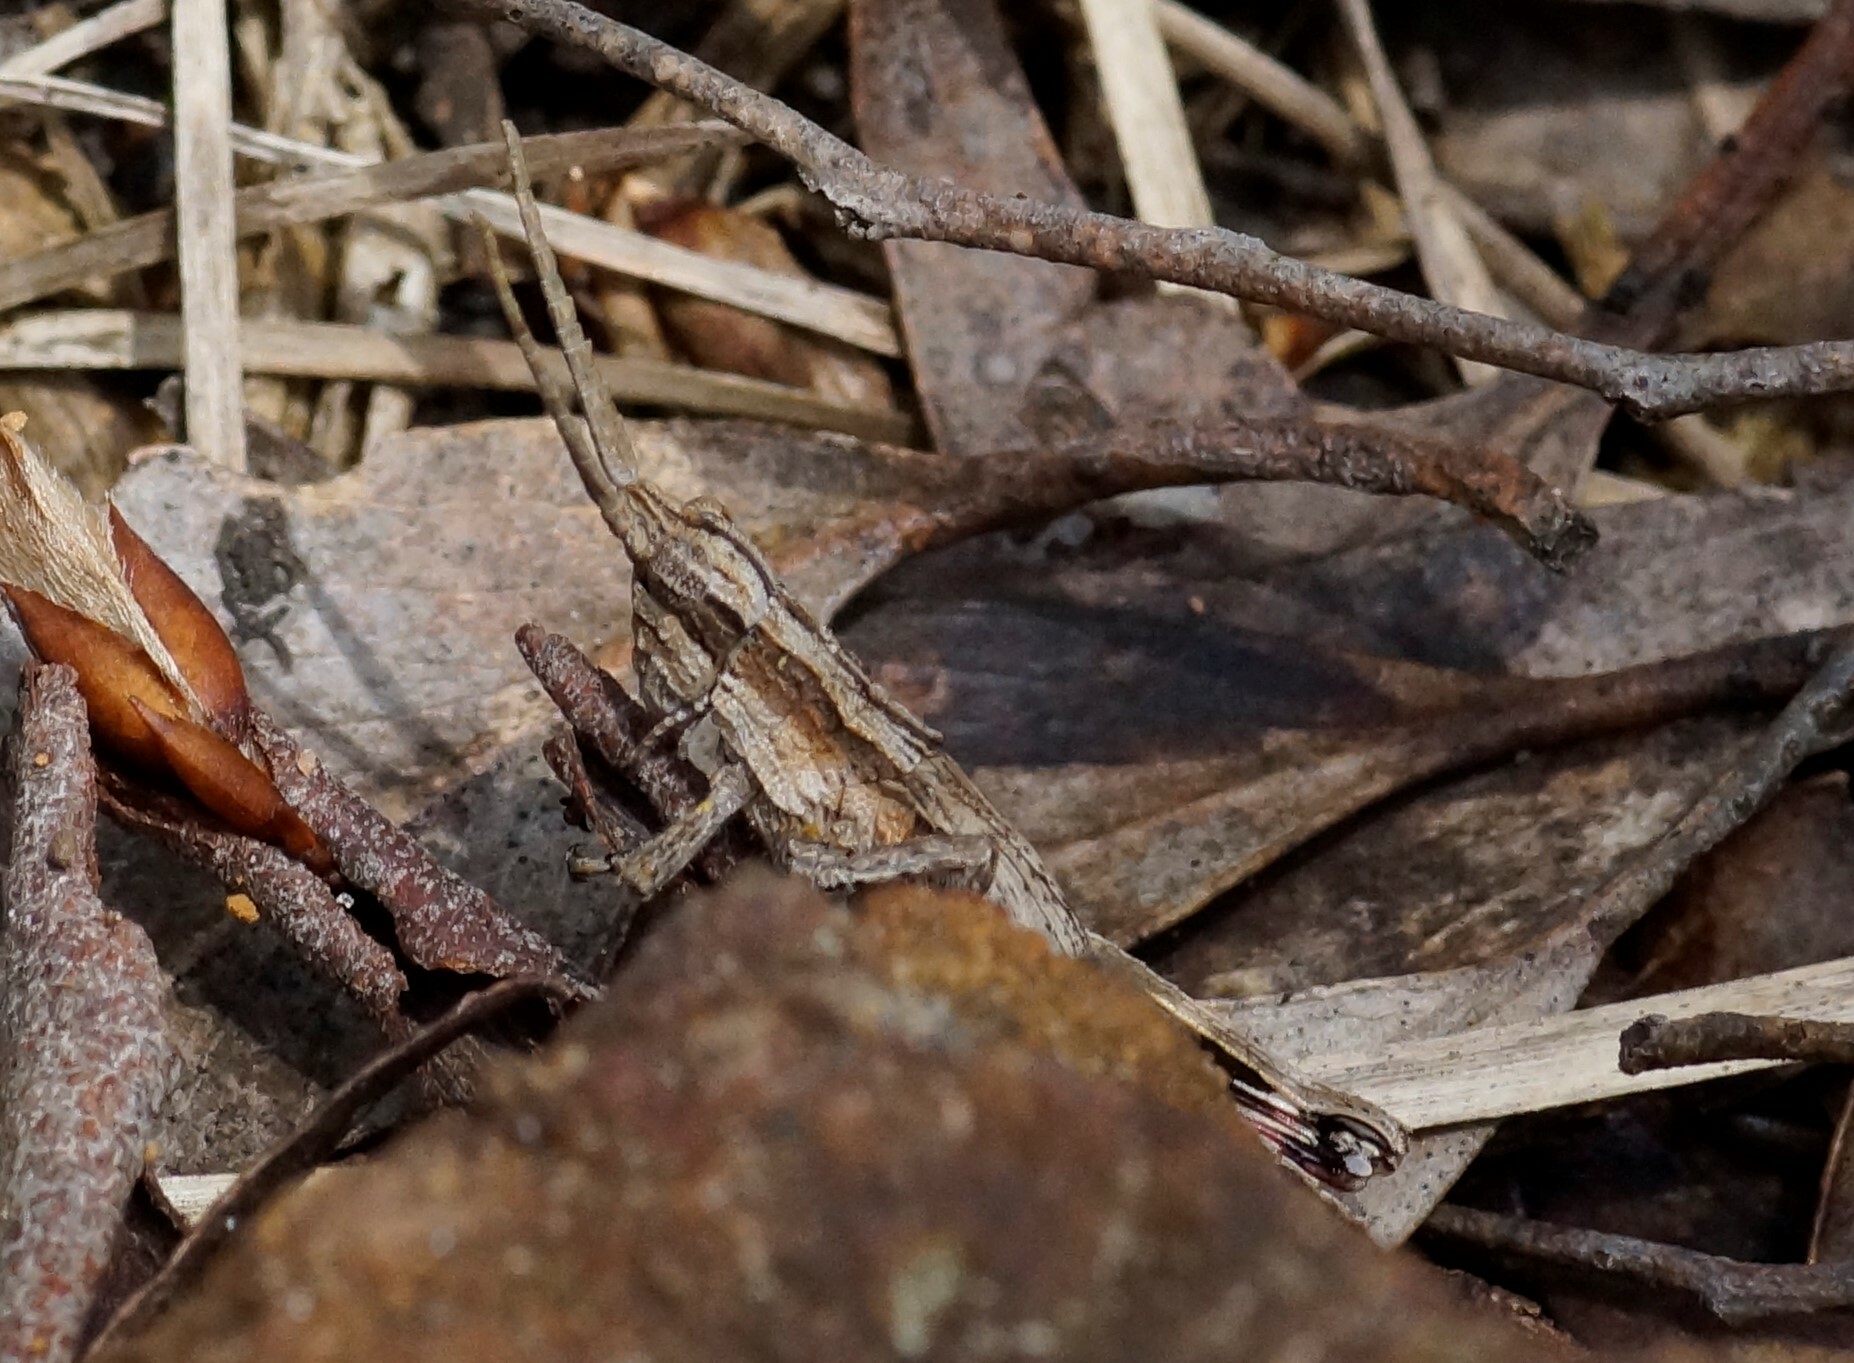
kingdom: Animalia
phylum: Arthropoda
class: Insecta
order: Orthoptera
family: Acrididae
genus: Coryphistes
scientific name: Coryphistes ruricola
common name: Bark-mimicking grasshopper
